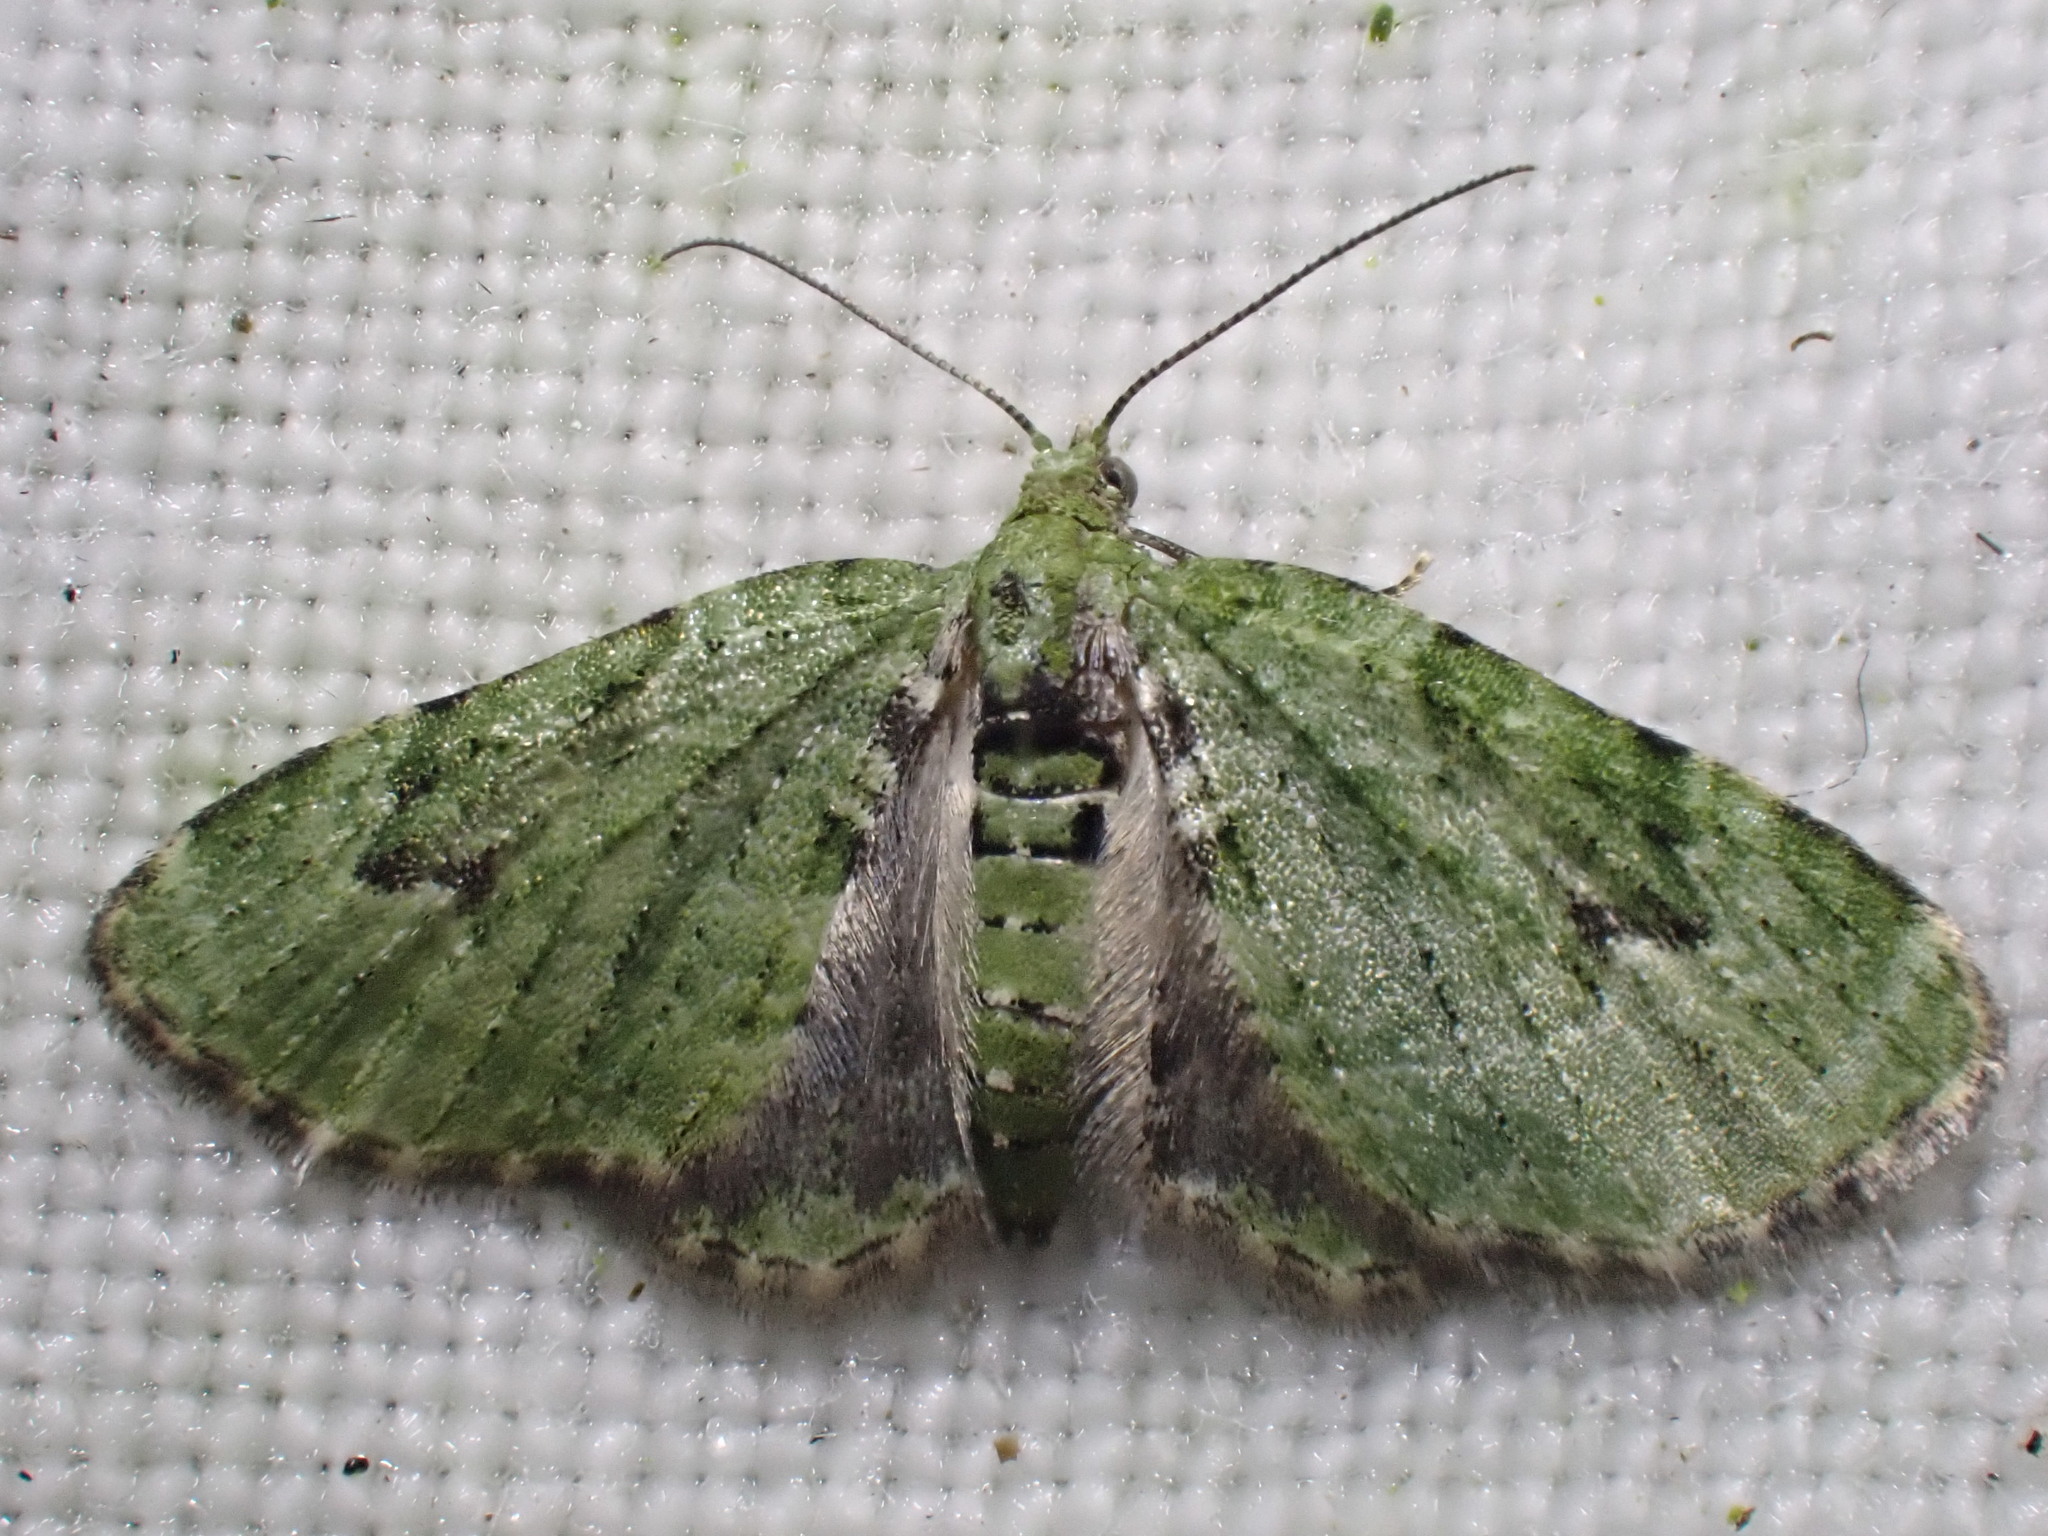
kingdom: Animalia
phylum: Arthropoda
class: Insecta
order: Lepidoptera
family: Geometridae
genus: Chloroclystis
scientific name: Chloroclystis v-ata
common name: V-pug
